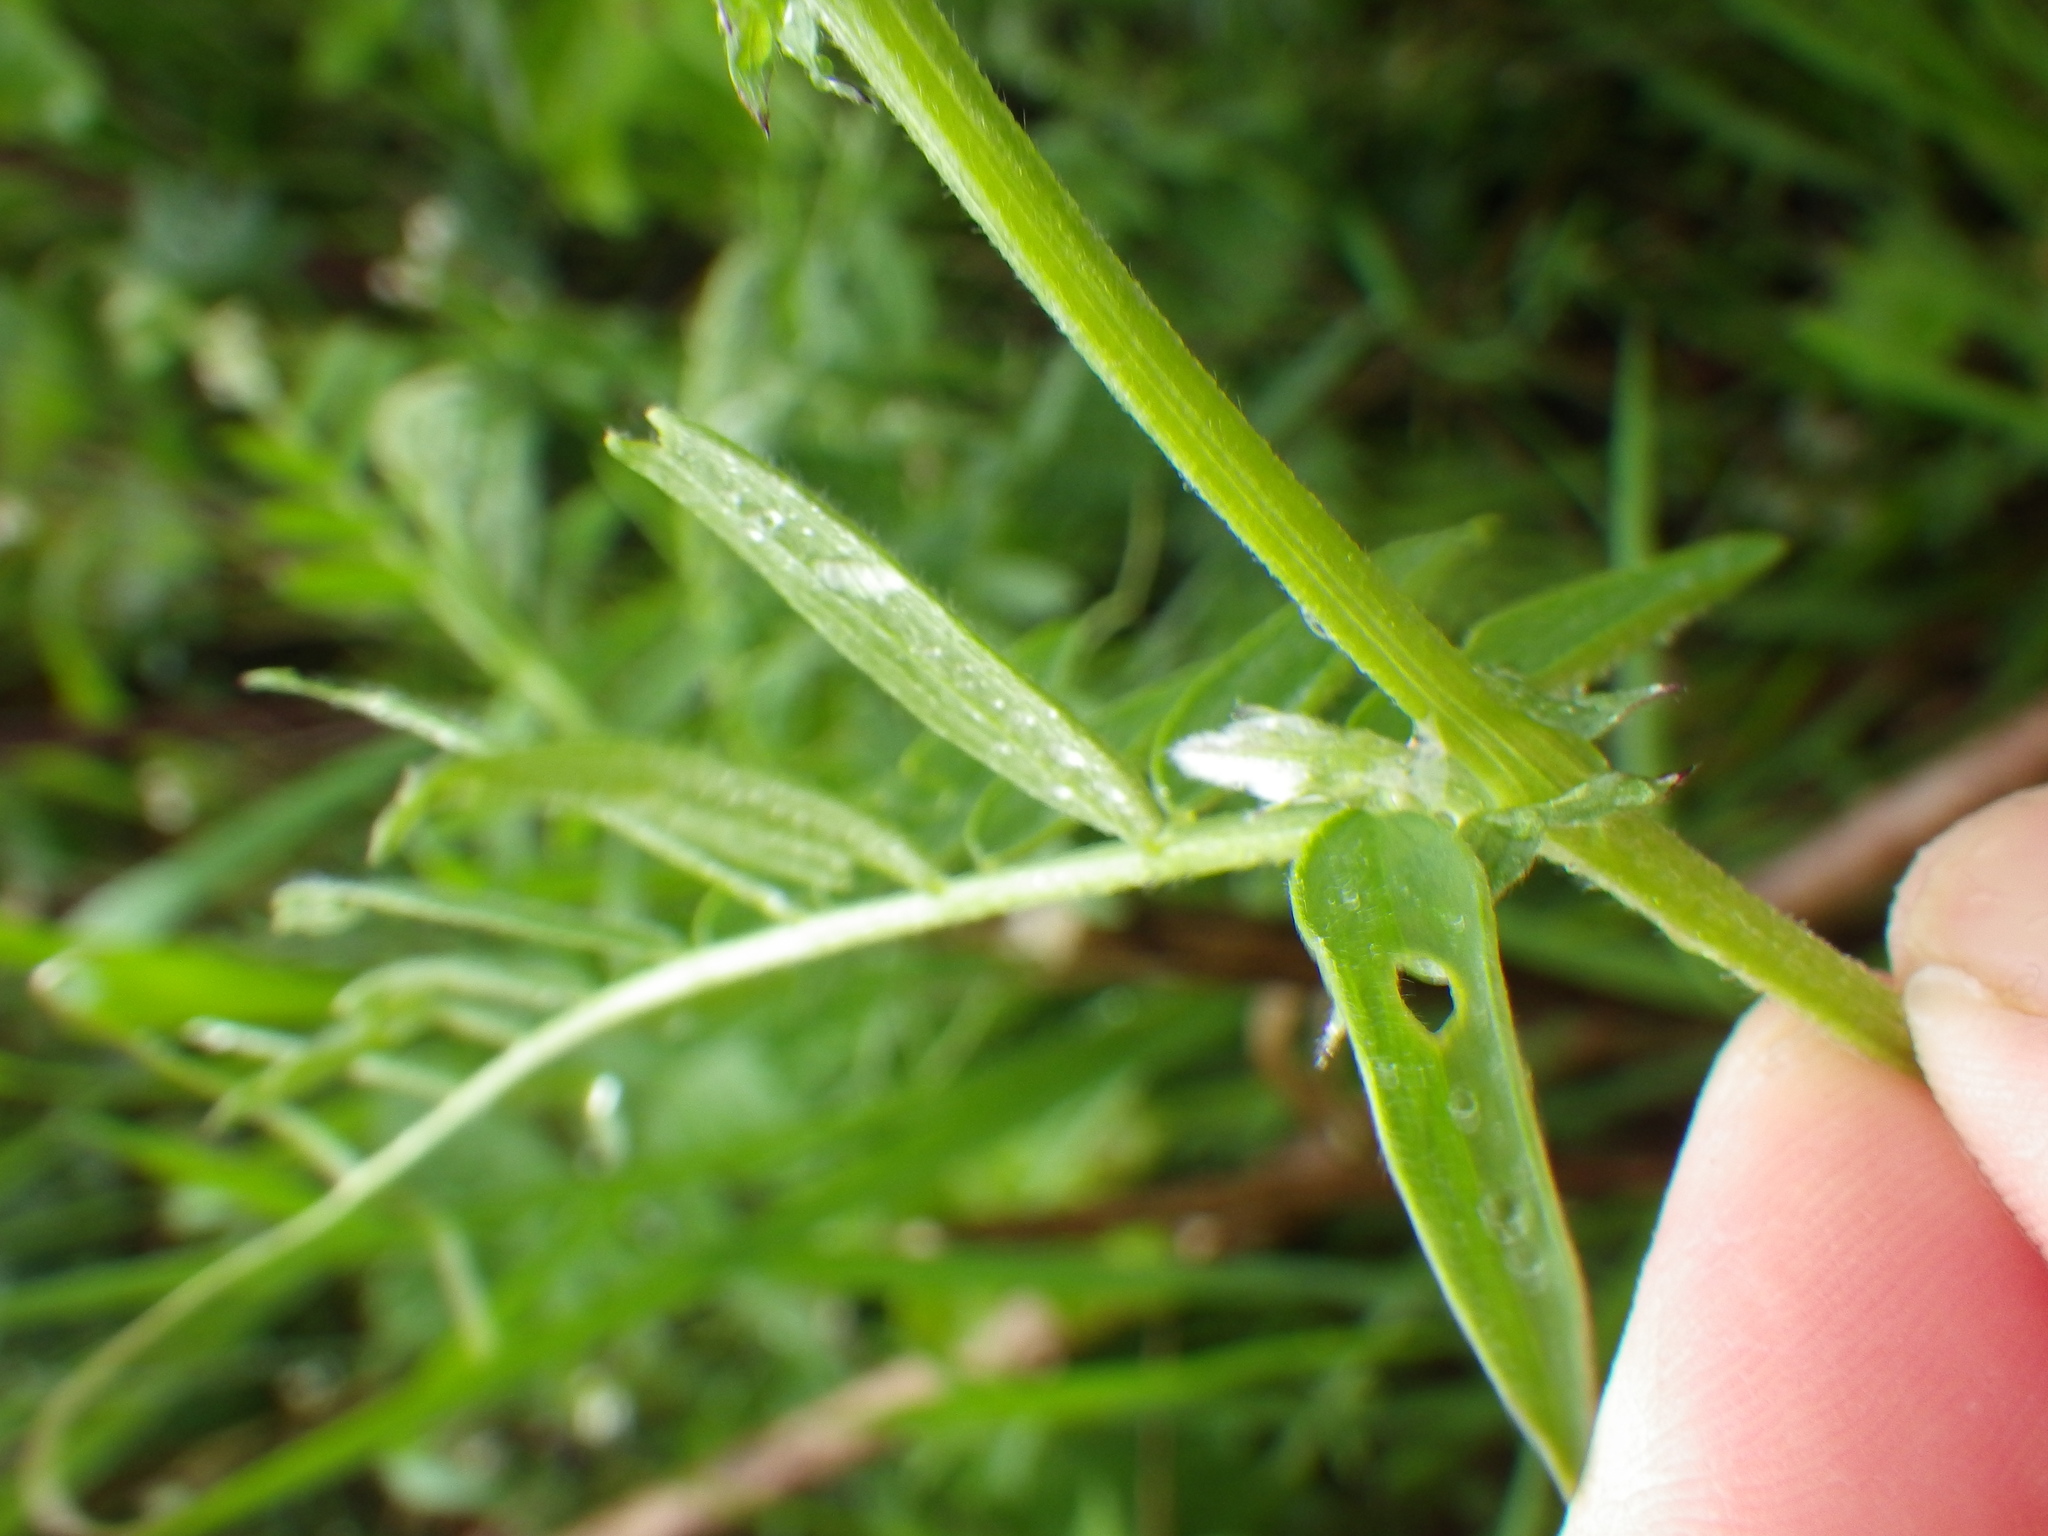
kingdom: Plantae
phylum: Tracheophyta
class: Magnoliopsida
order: Fabales
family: Fabaceae
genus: Vicia
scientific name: Vicia hirsuta
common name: Tiny vetch
